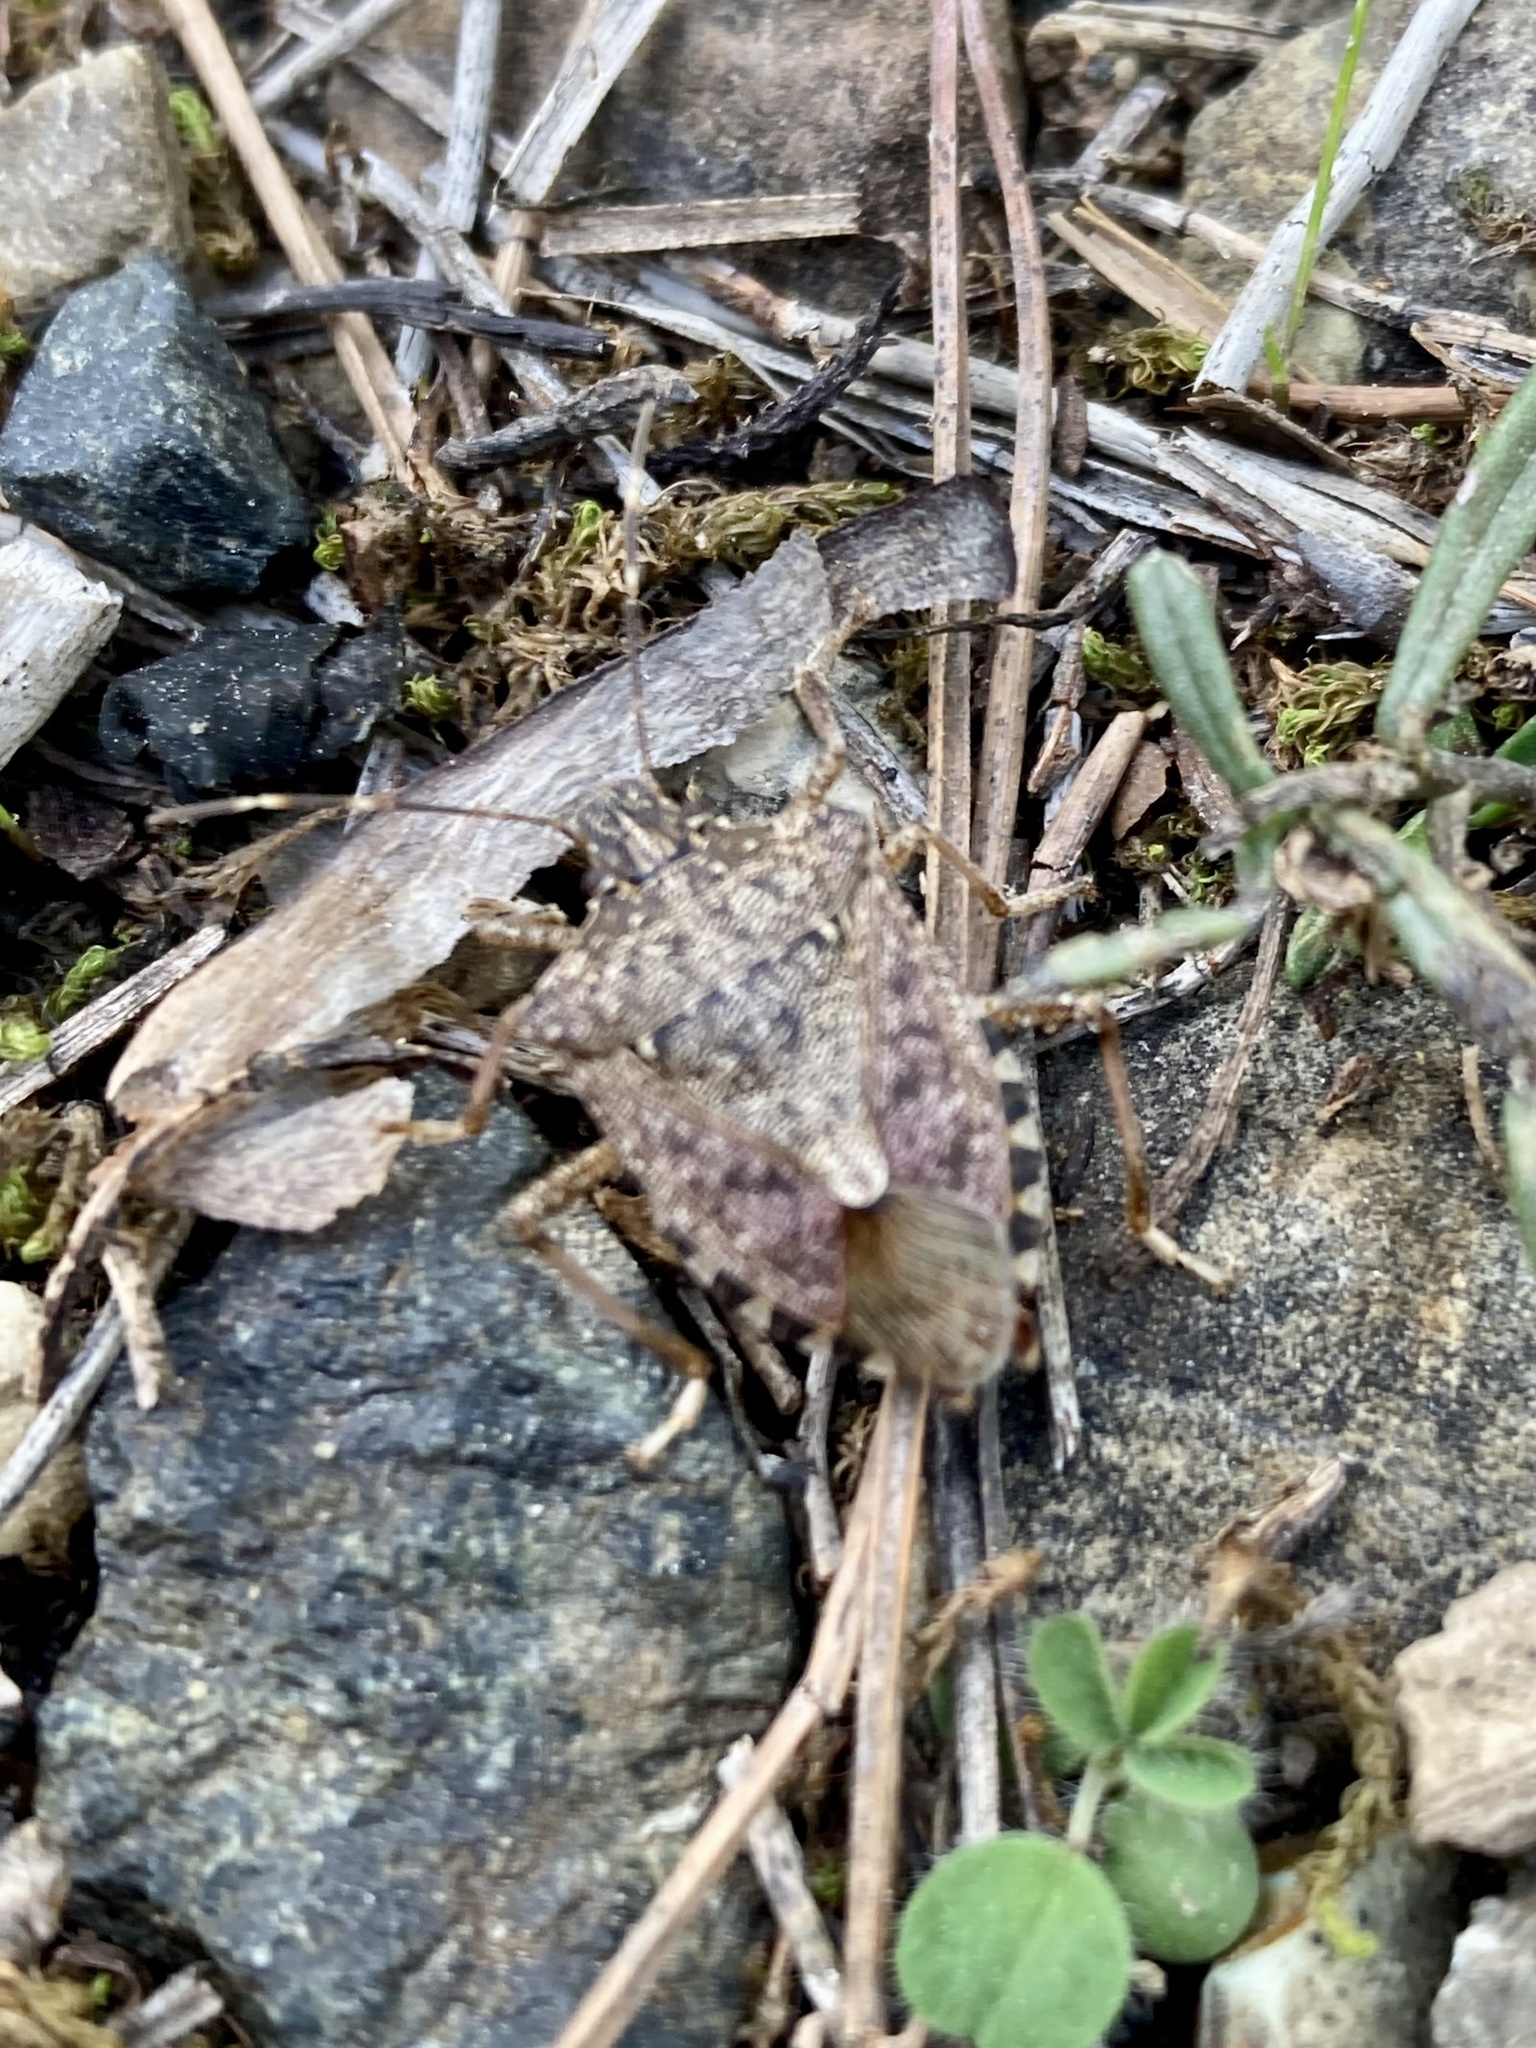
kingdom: Animalia
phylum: Arthropoda
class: Insecta
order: Hemiptera
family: Pentatomidae
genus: Halyomorpha
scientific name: Halyomorpha halys
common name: Brown marmorated stink bug
